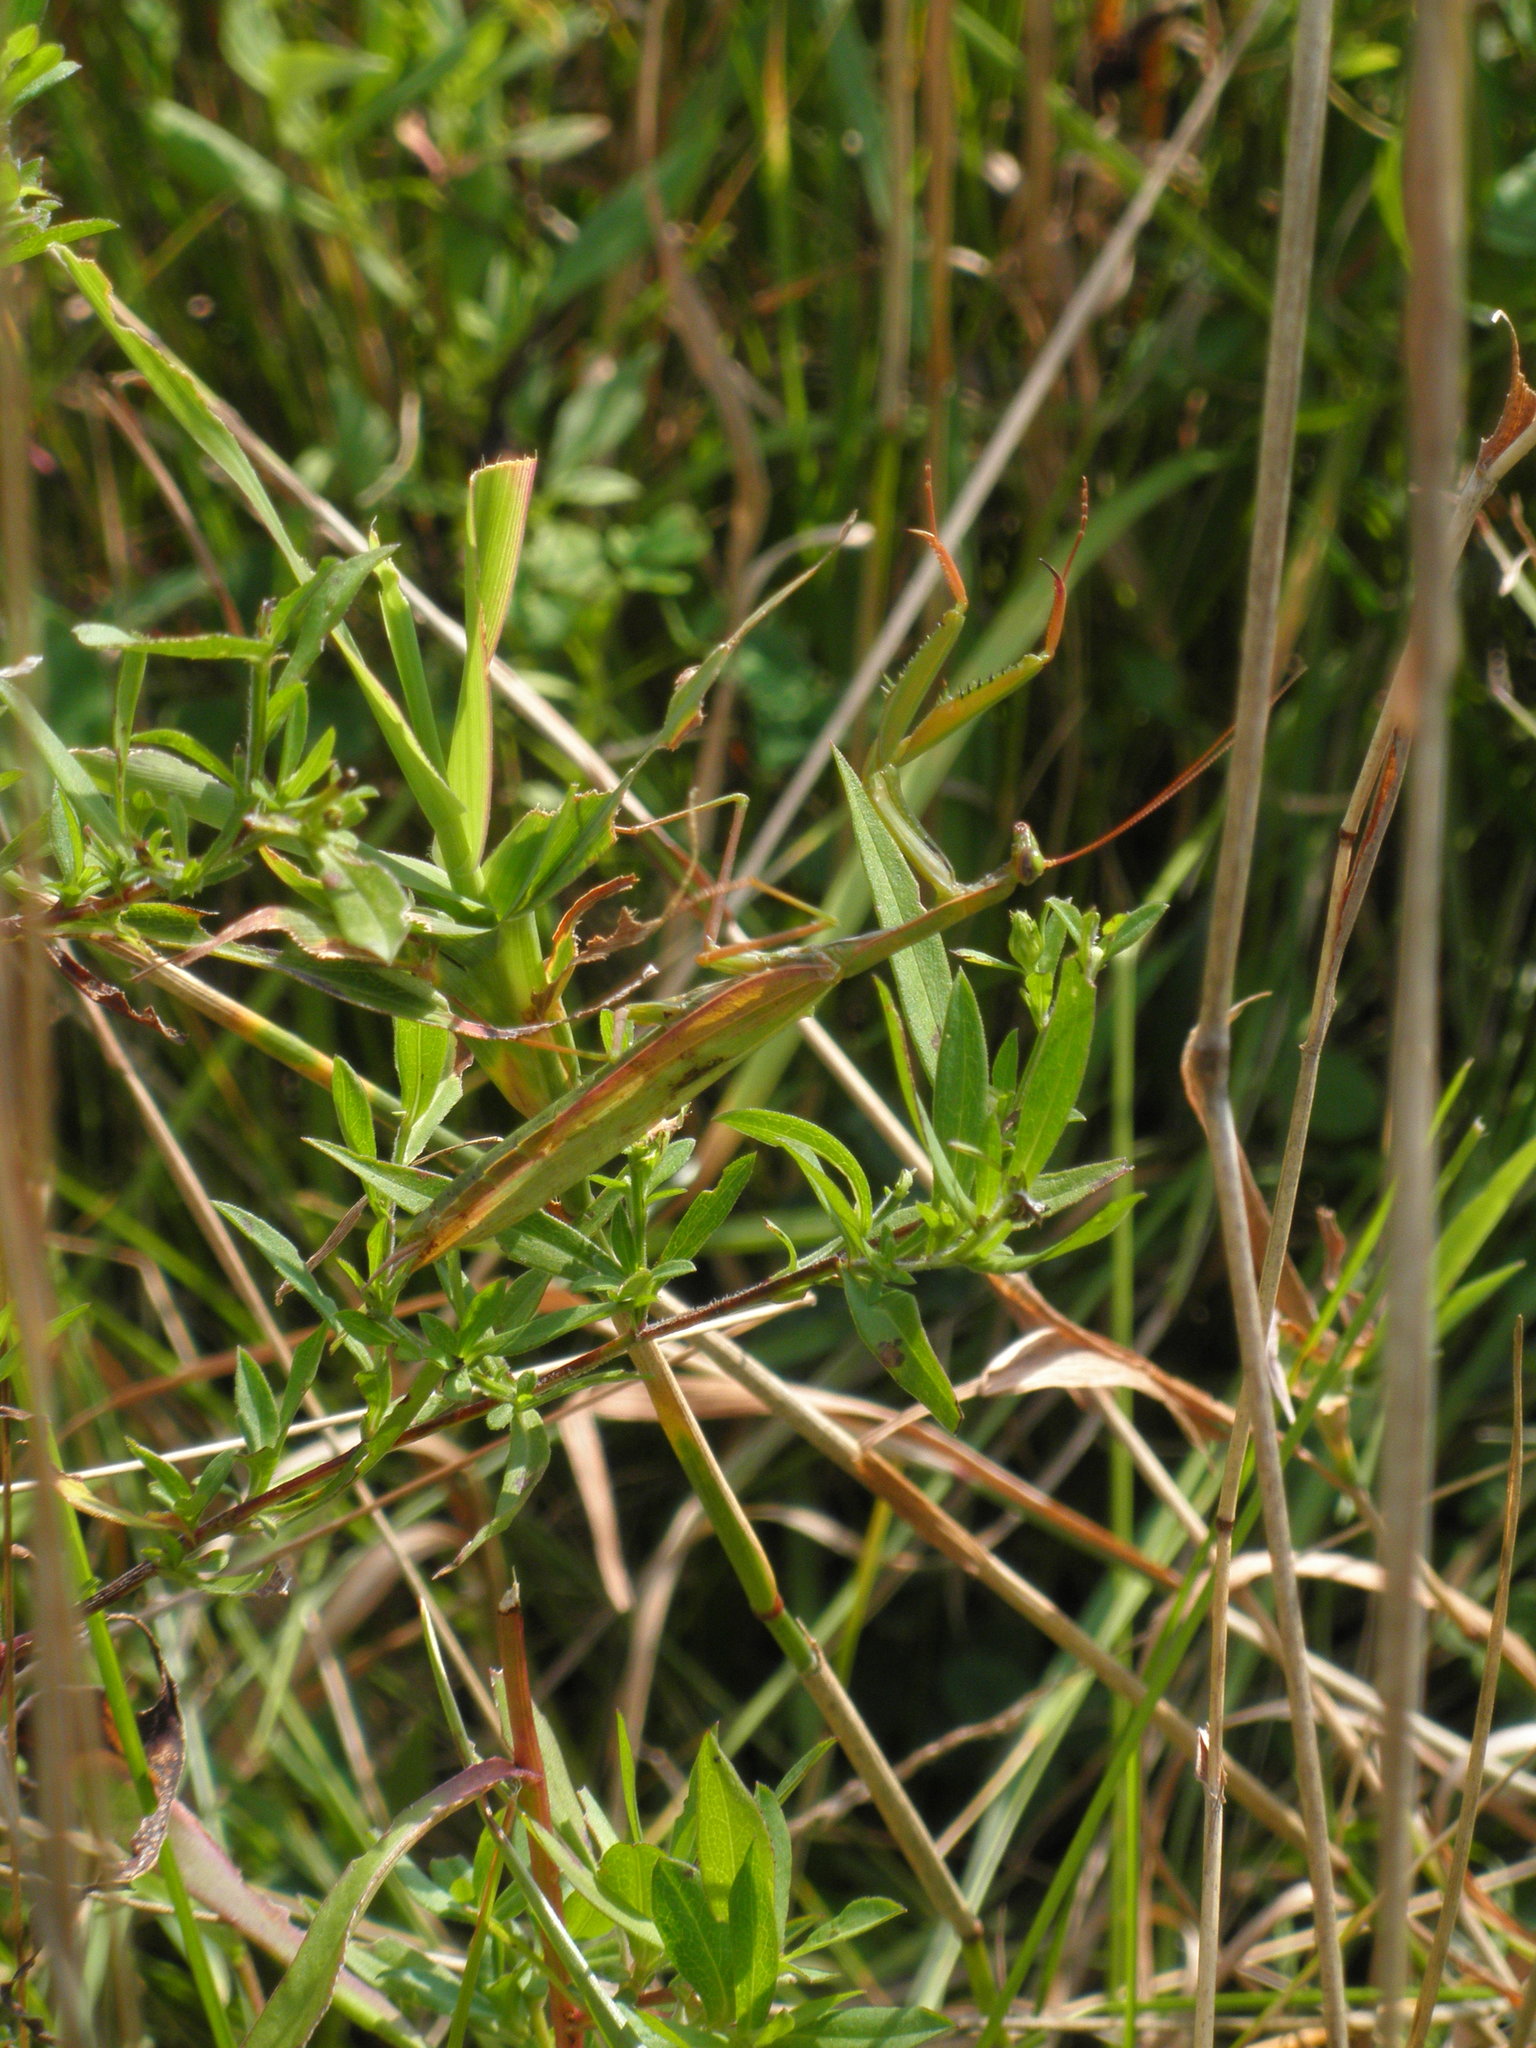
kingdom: Animalia
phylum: Arthropoda
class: Insecta
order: Mantodea
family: Mantidae
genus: Mantis
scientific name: Mantis religiosa
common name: Praying mantis
